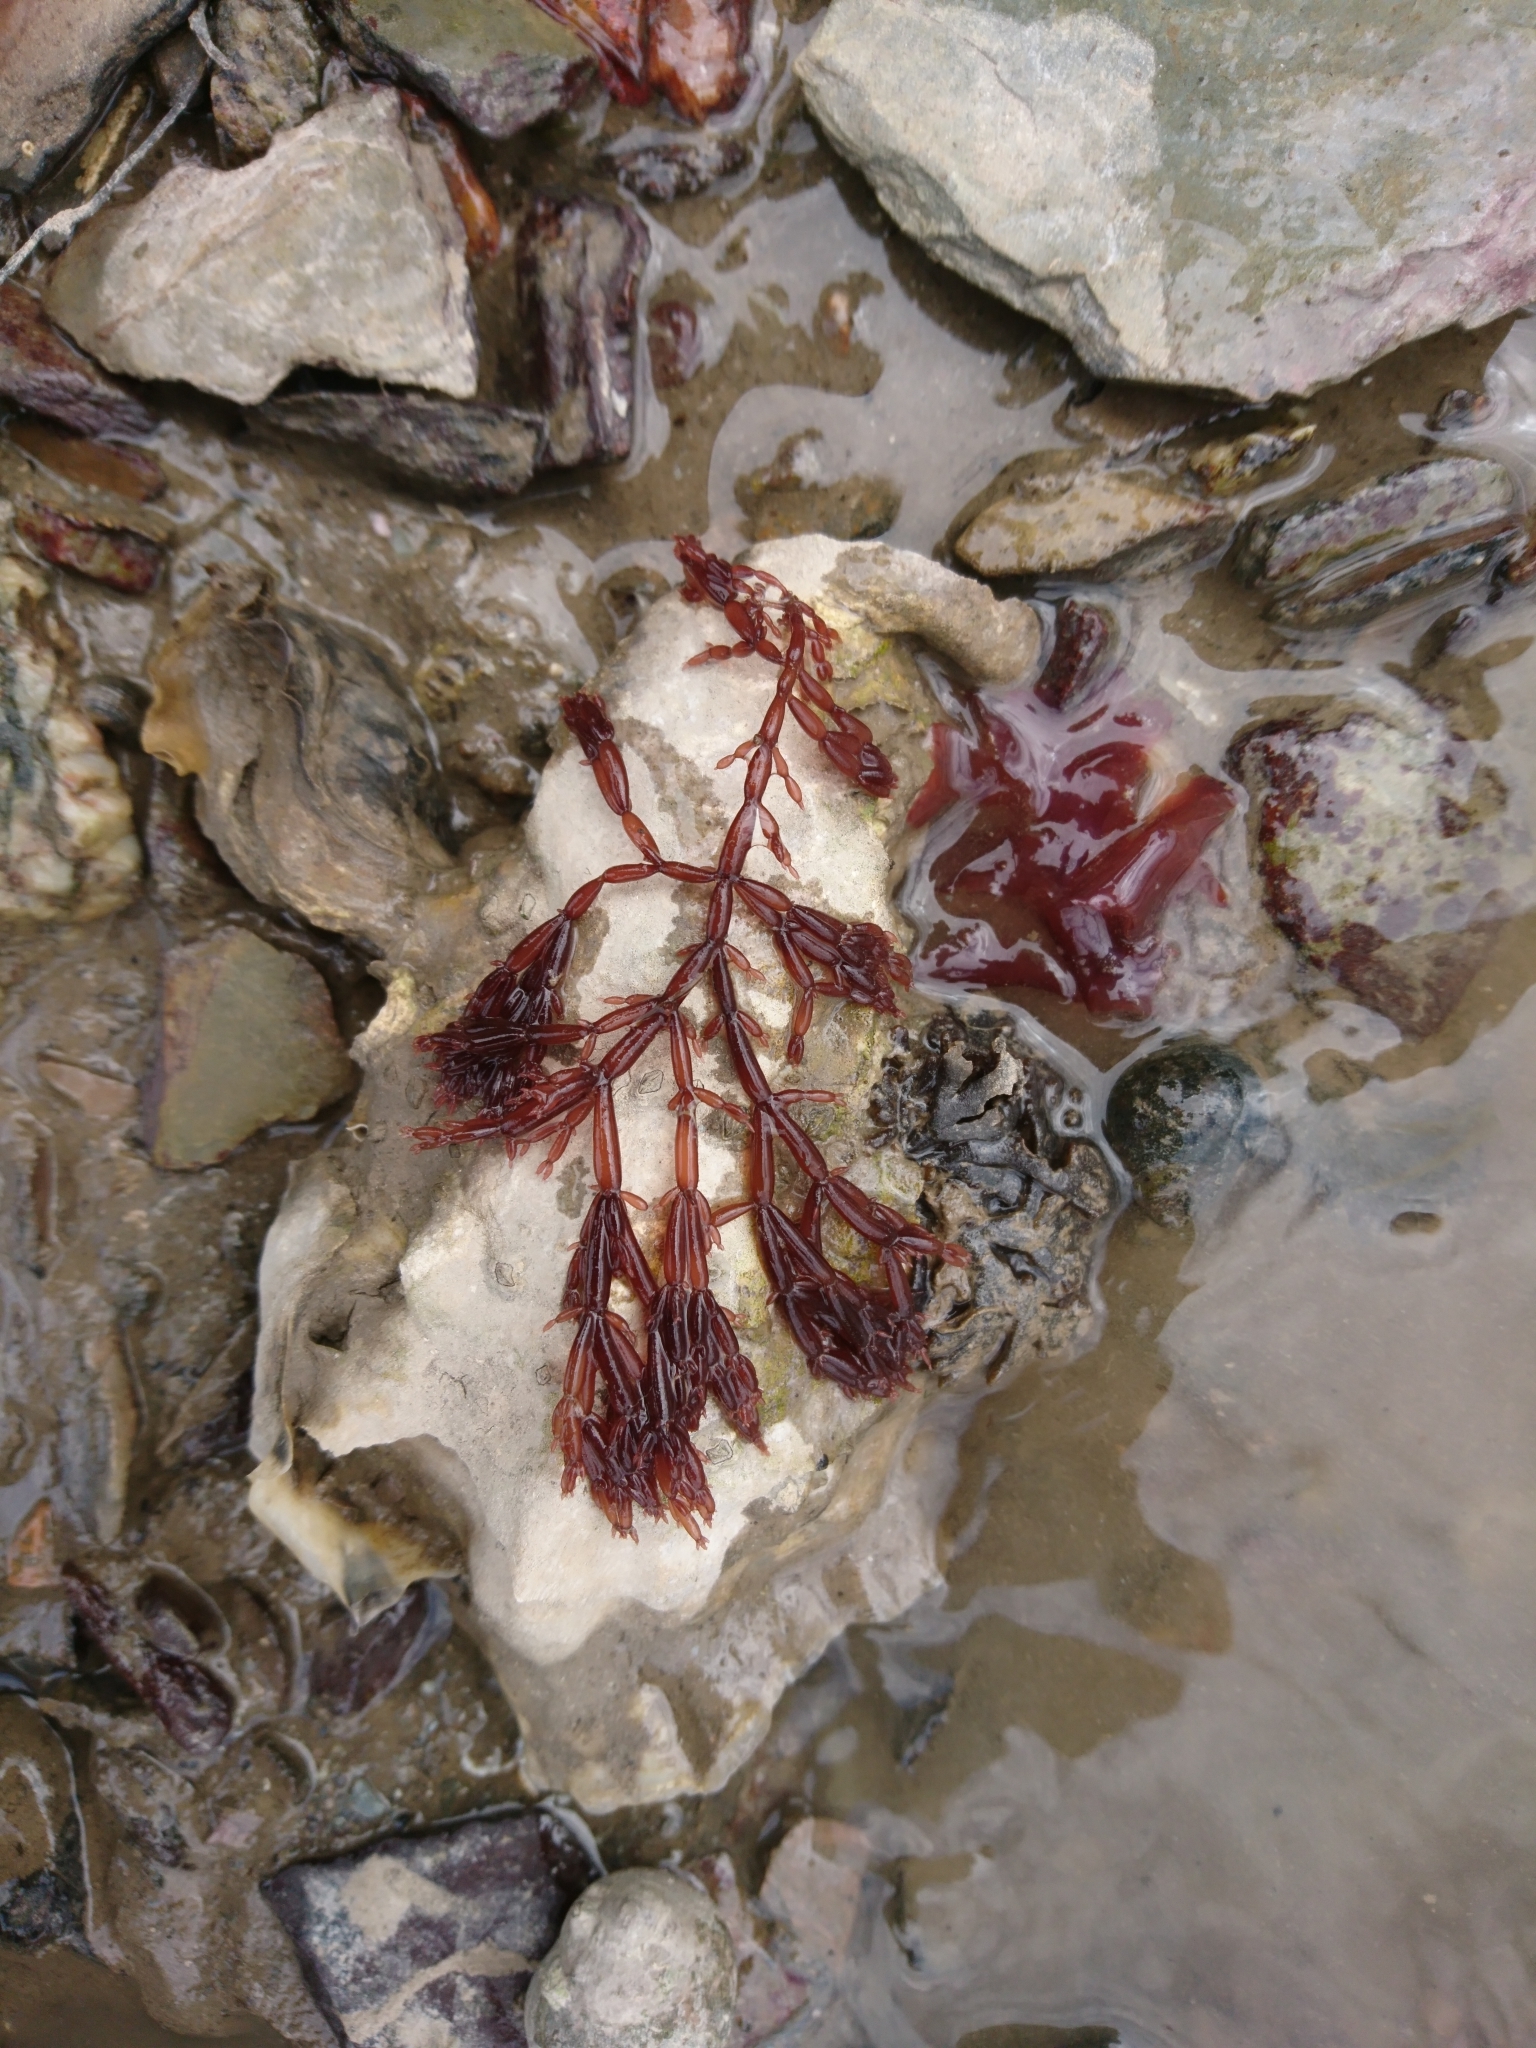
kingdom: Plantae
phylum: Rhodophyta
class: Florideophyceae
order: Rhodymeniales
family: Lomentariaceae
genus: Lomentaria
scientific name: Lomentaria articulata
